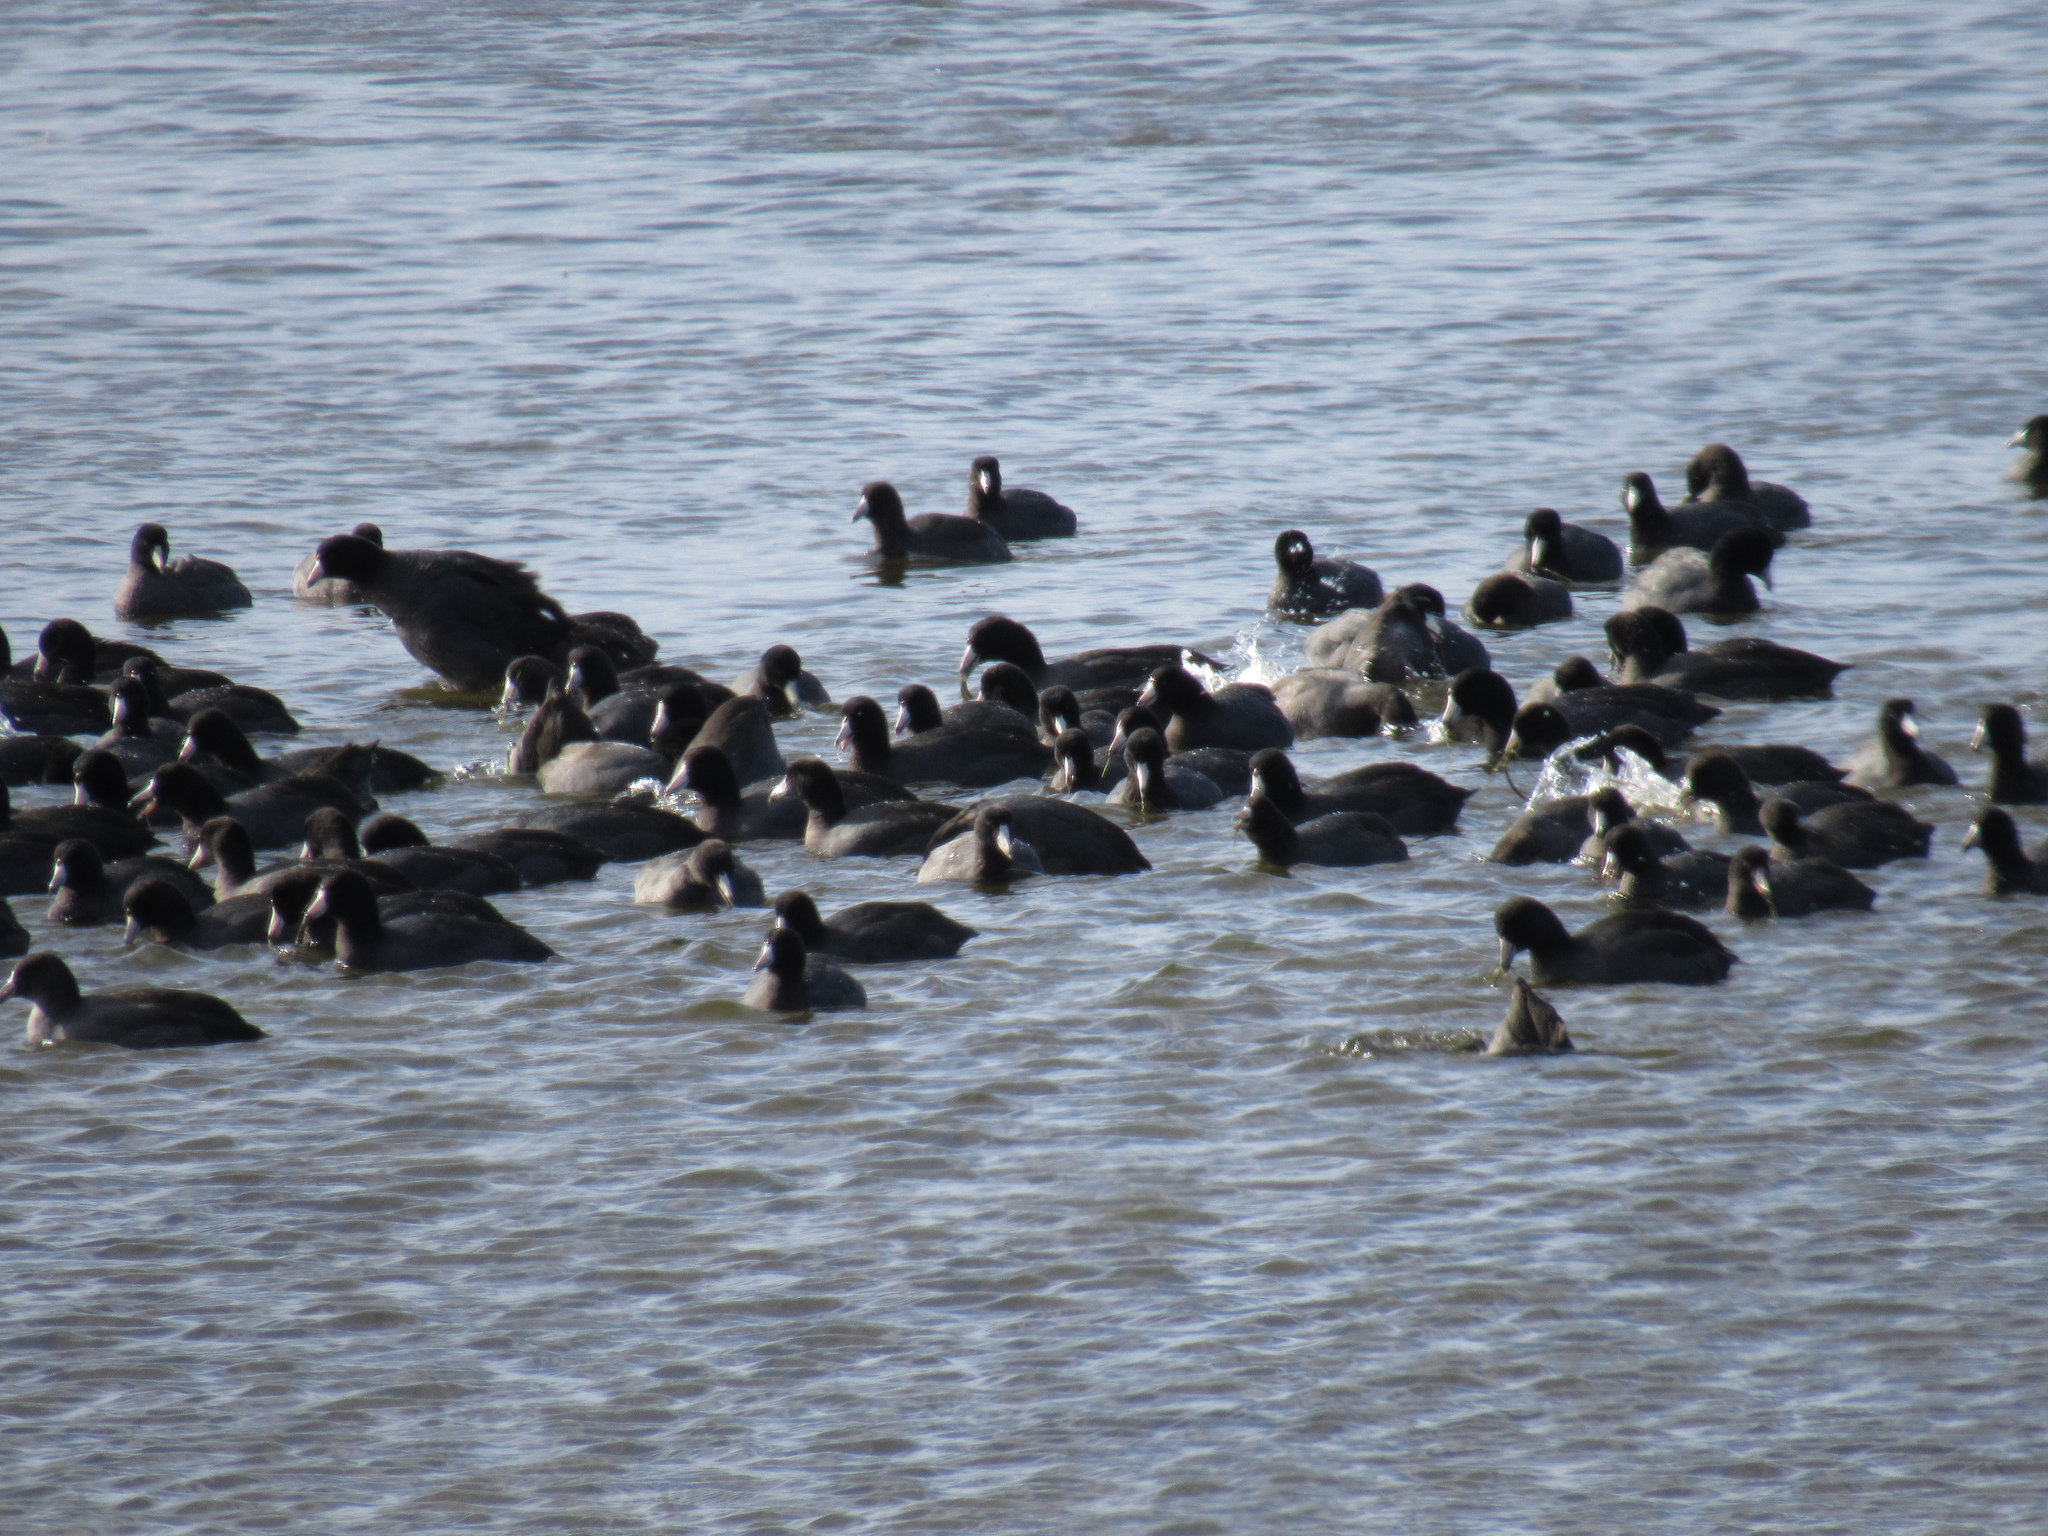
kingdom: Animalia
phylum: Chordata
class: Aves
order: Gruiformes
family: Rallidae
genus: Fulica
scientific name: Fulica americana
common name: American coot
